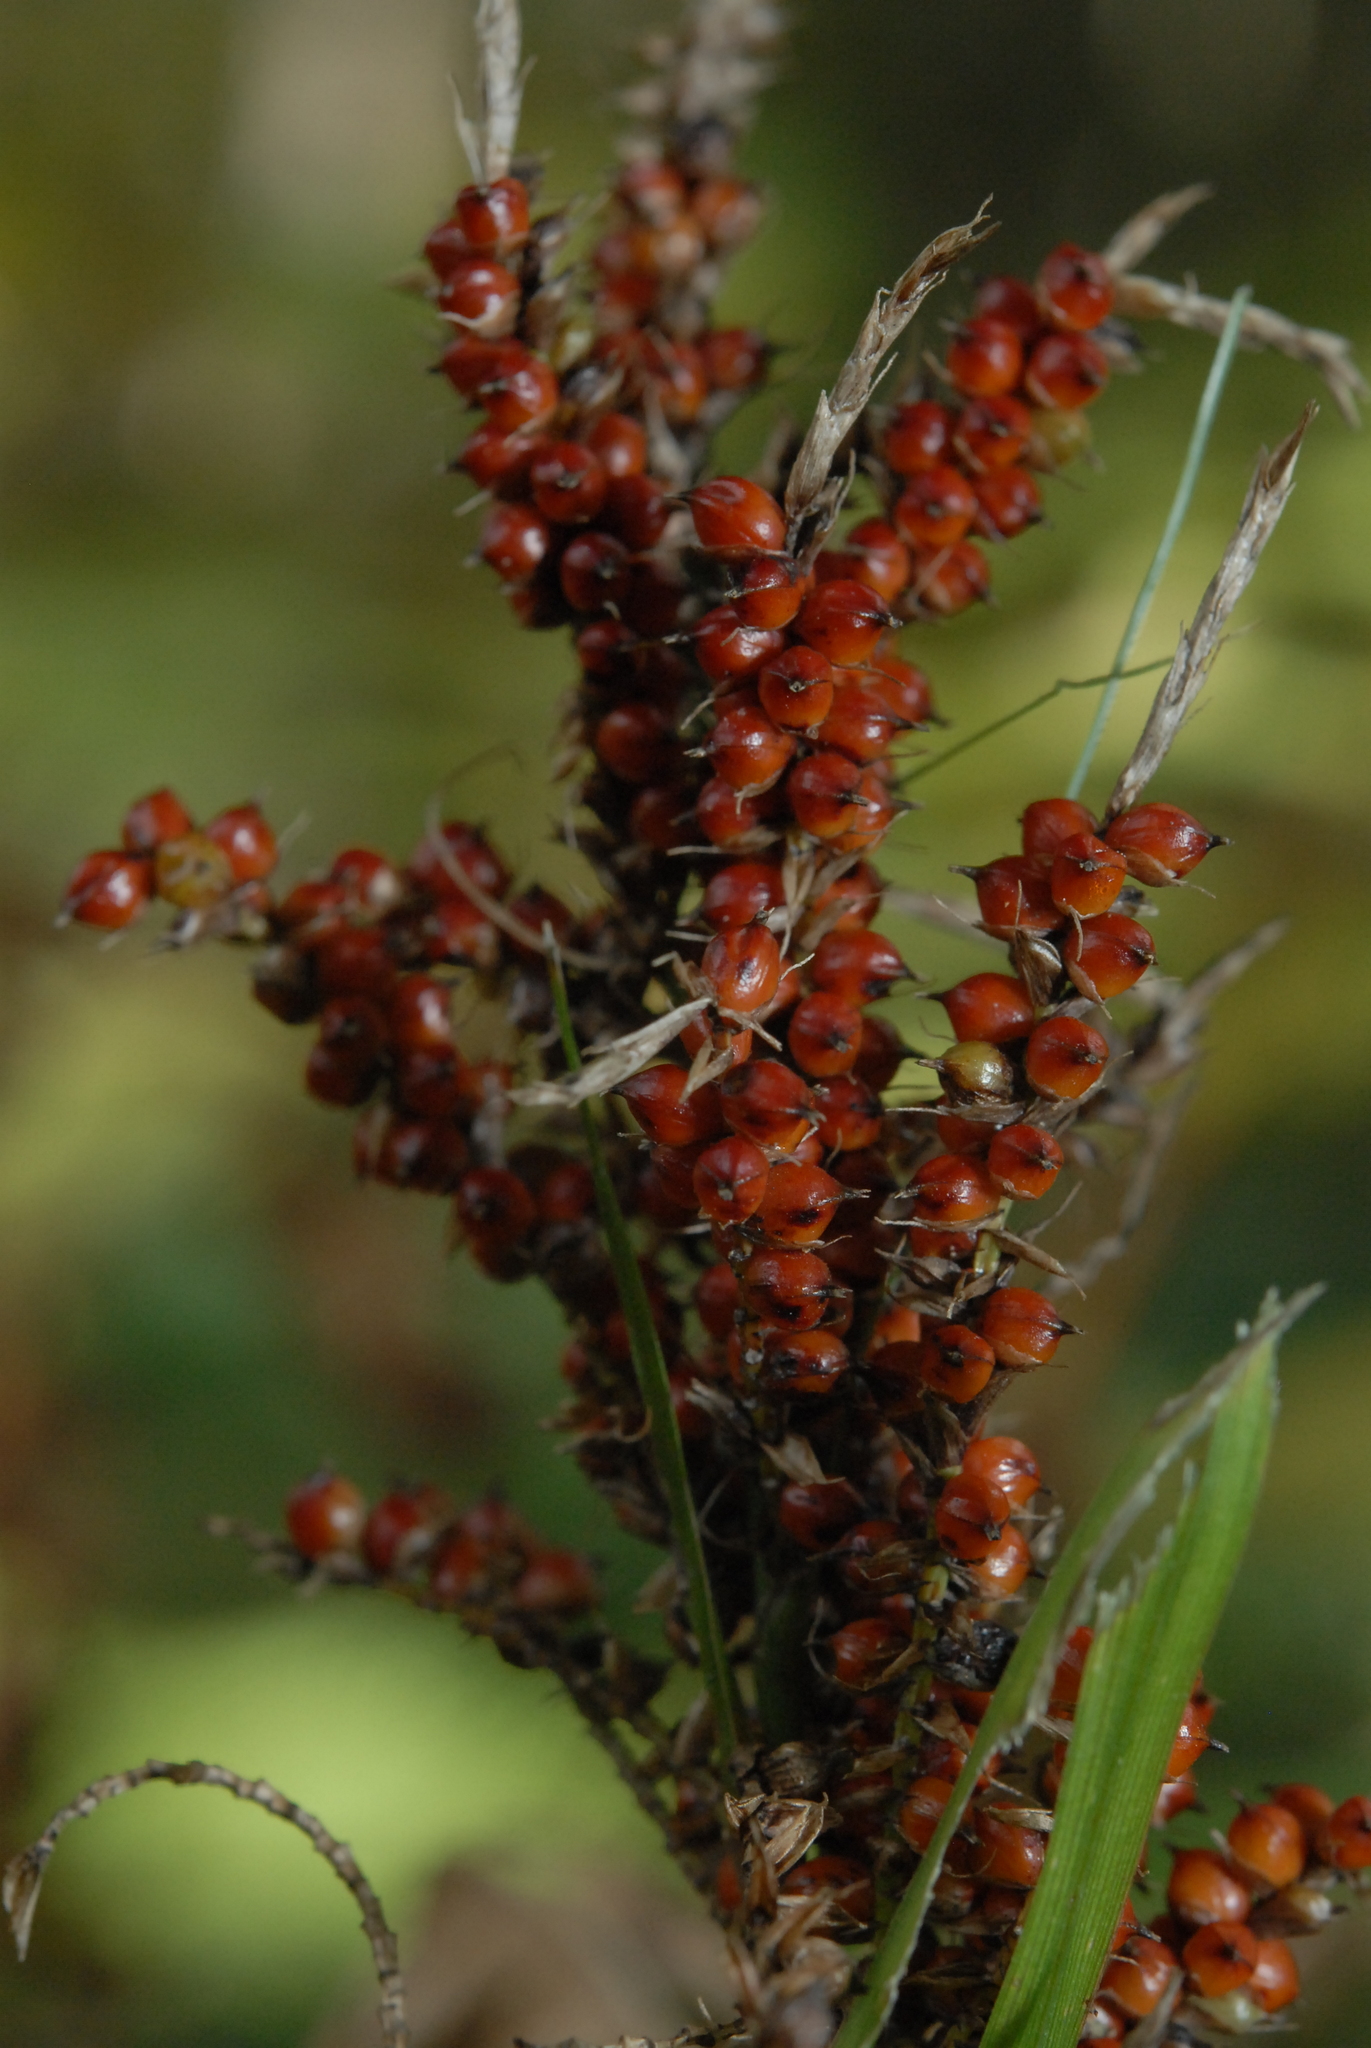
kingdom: Plantae
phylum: Tracheophyta
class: Liliopsida
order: Poales
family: Cyperaceae
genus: Carex
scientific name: Carex baccans
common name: Crimson seeded sedge
